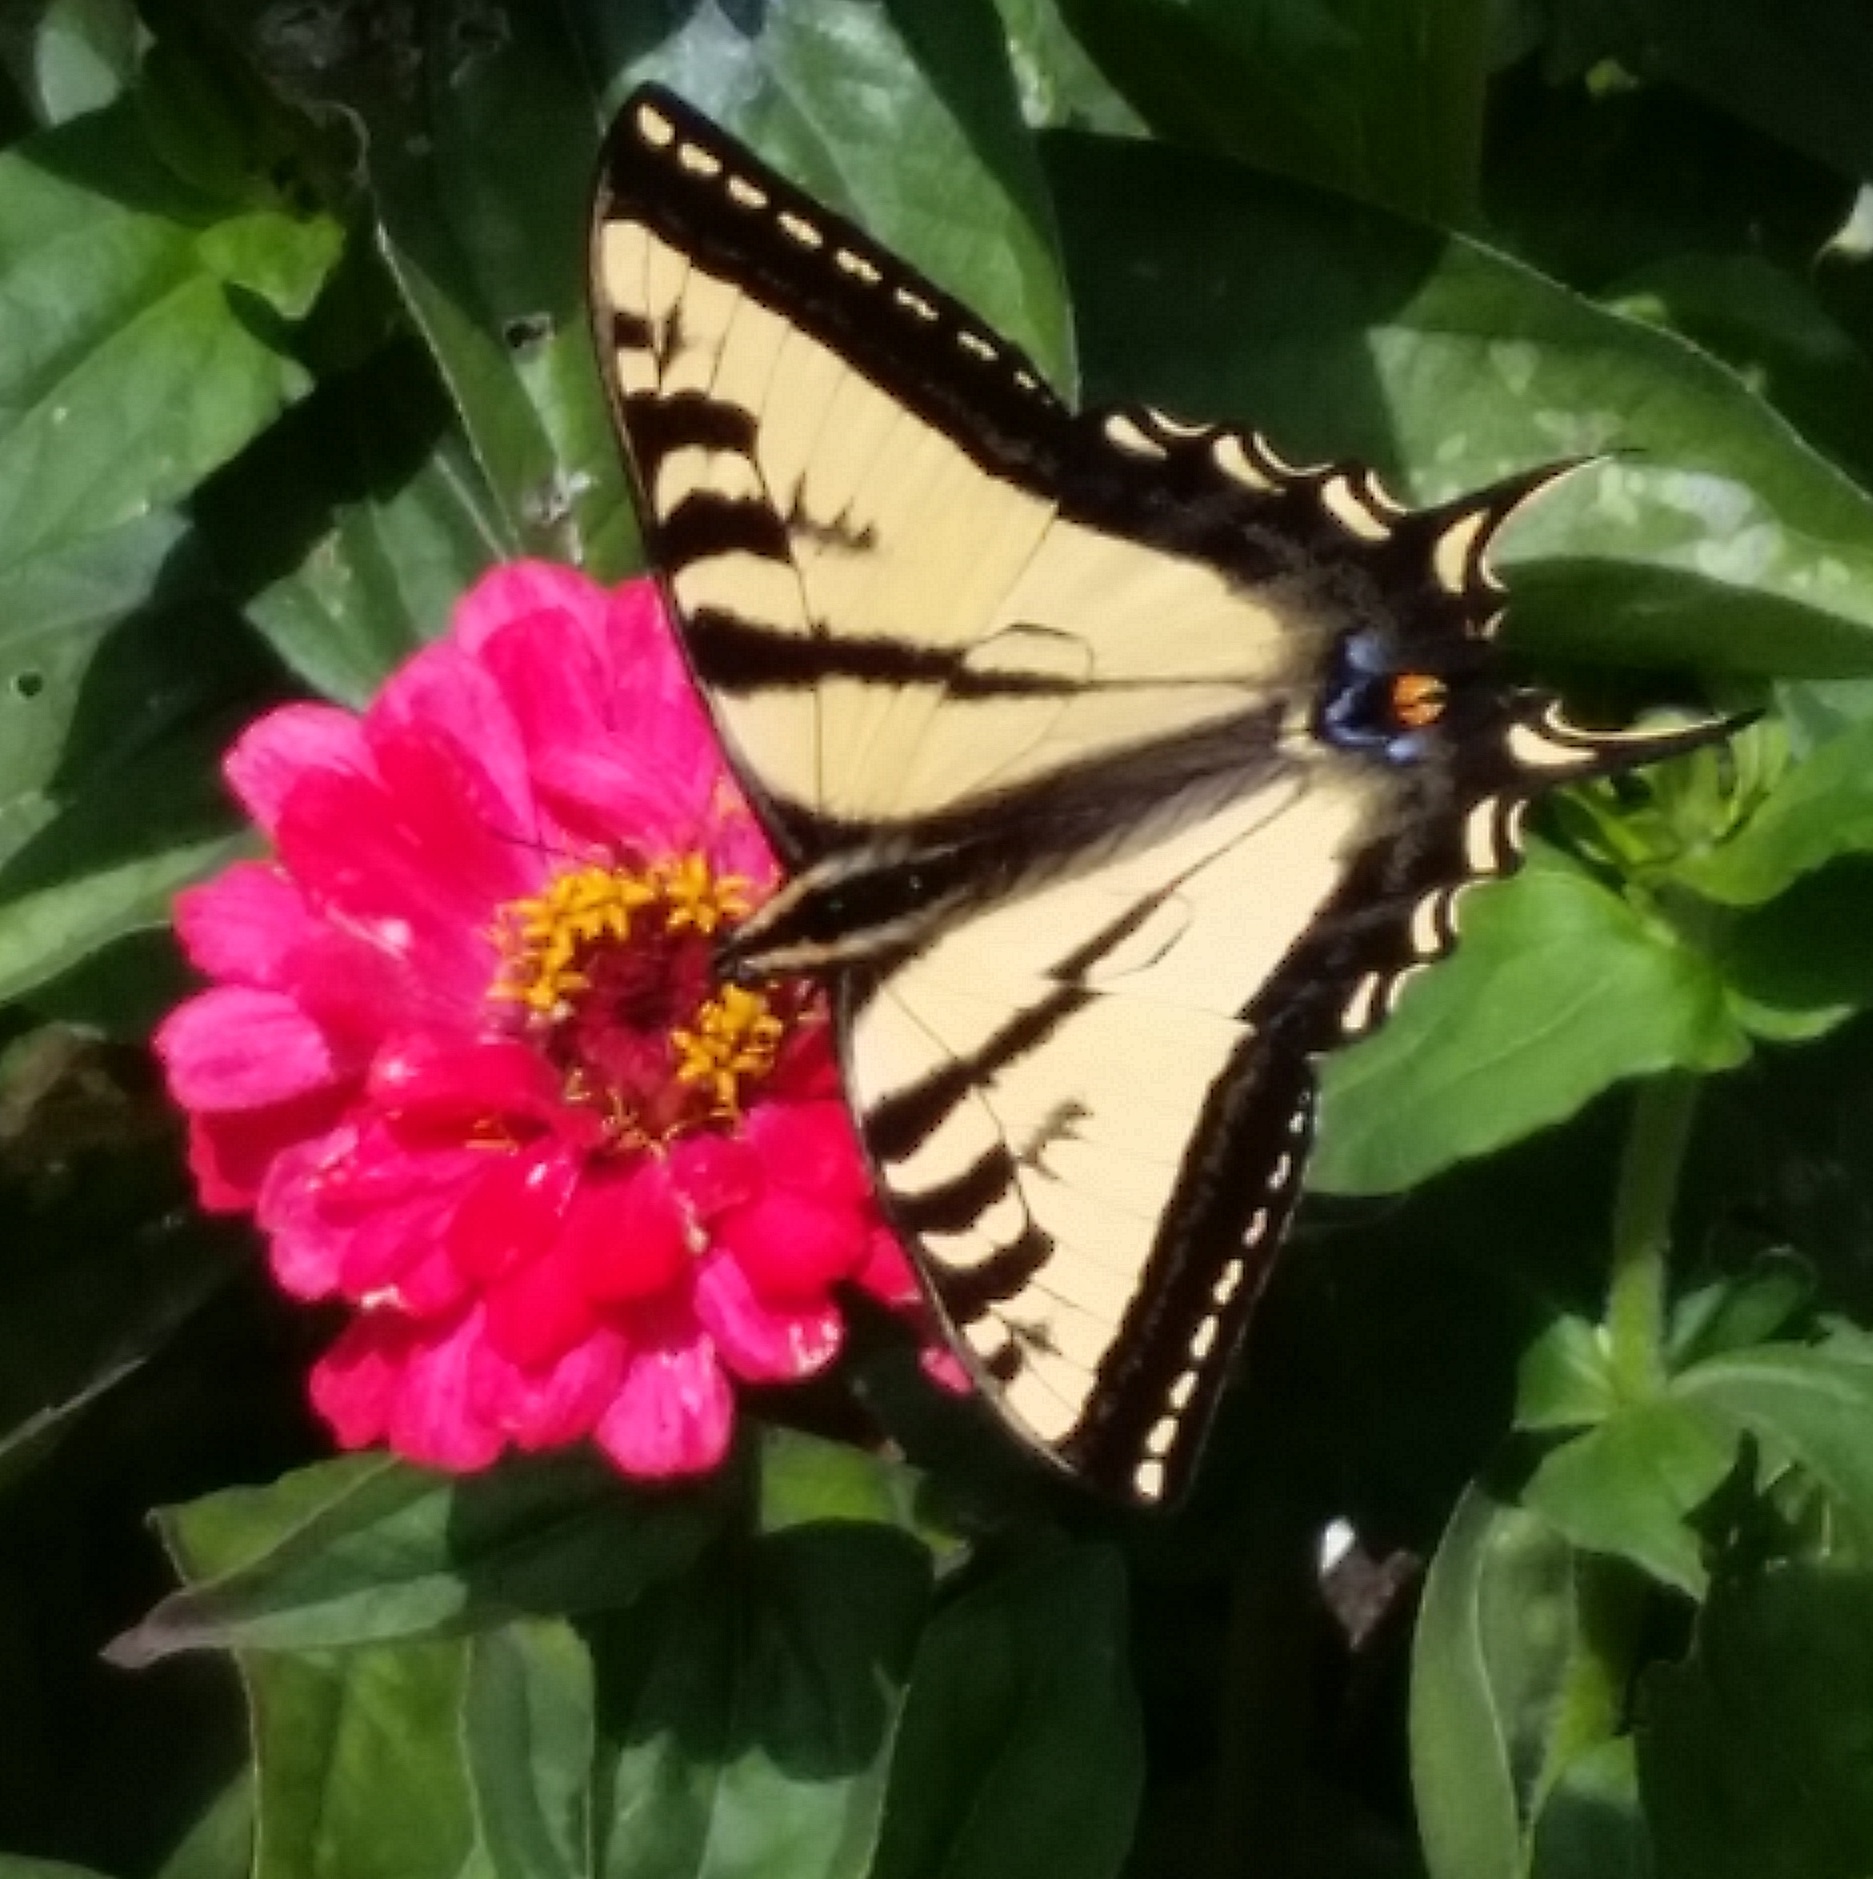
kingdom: Animalia
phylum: Arthropoda
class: Insecta
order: Lepidoptera
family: Papilionidae
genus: Papilio
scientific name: Papilio rutulus
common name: Western tiger swallowtail
